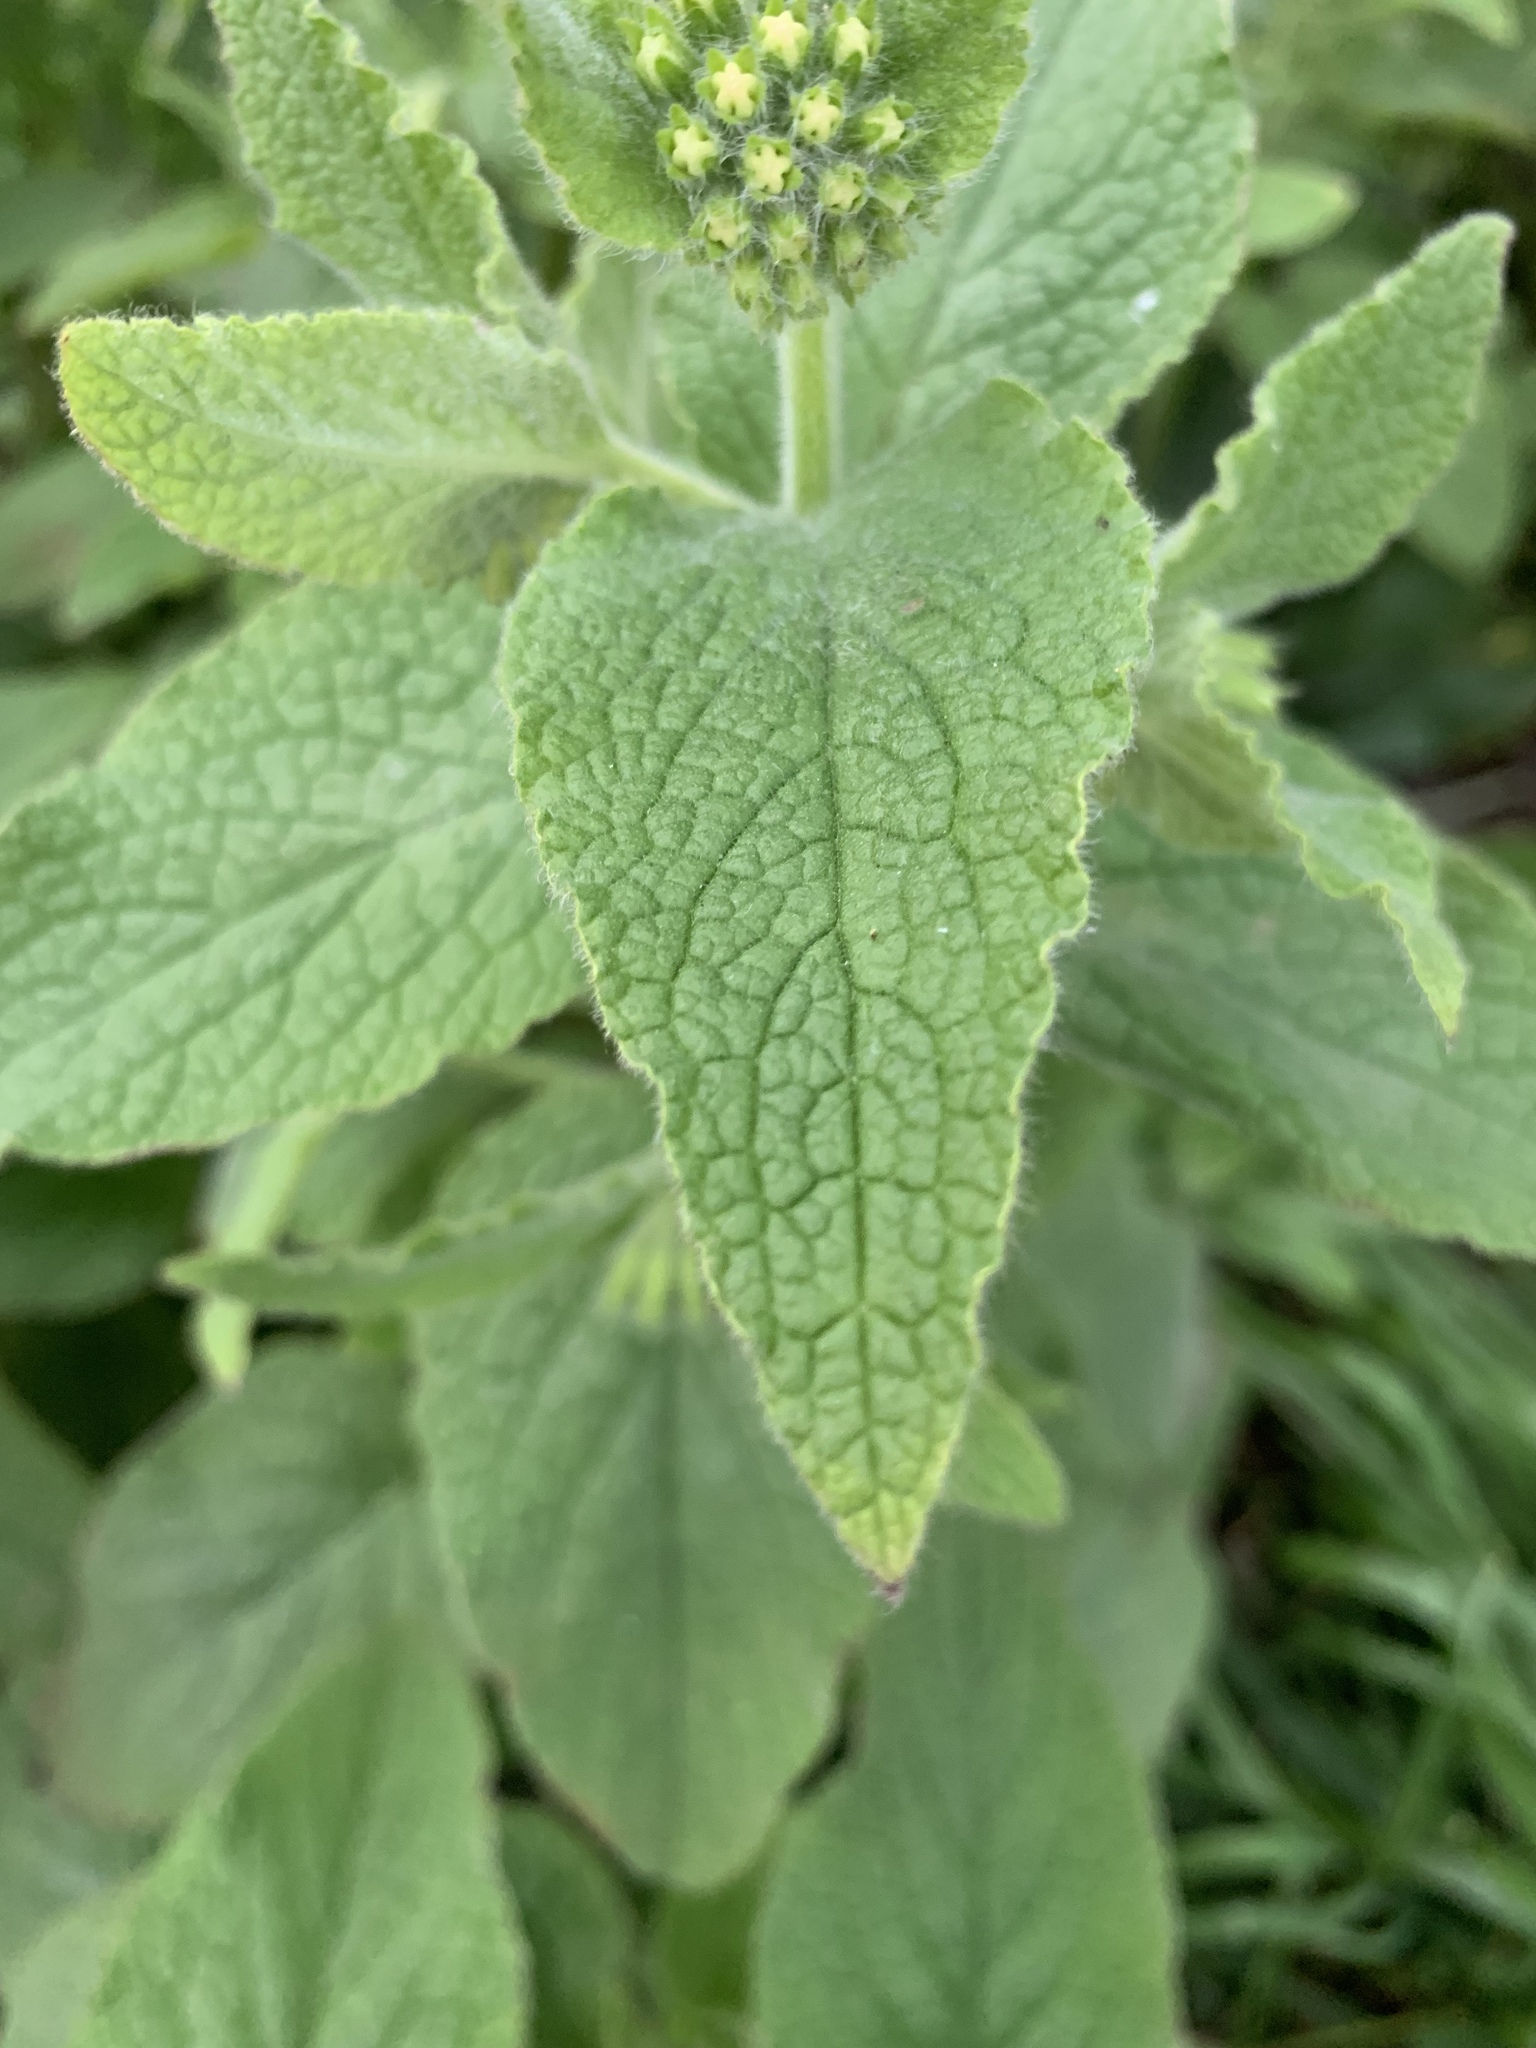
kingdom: Plantae
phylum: Tracheophyta
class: Magnoliopsida
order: Boraginales
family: Boraginaceae
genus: Symphytum
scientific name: Symphytum orientale
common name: White comfrey
